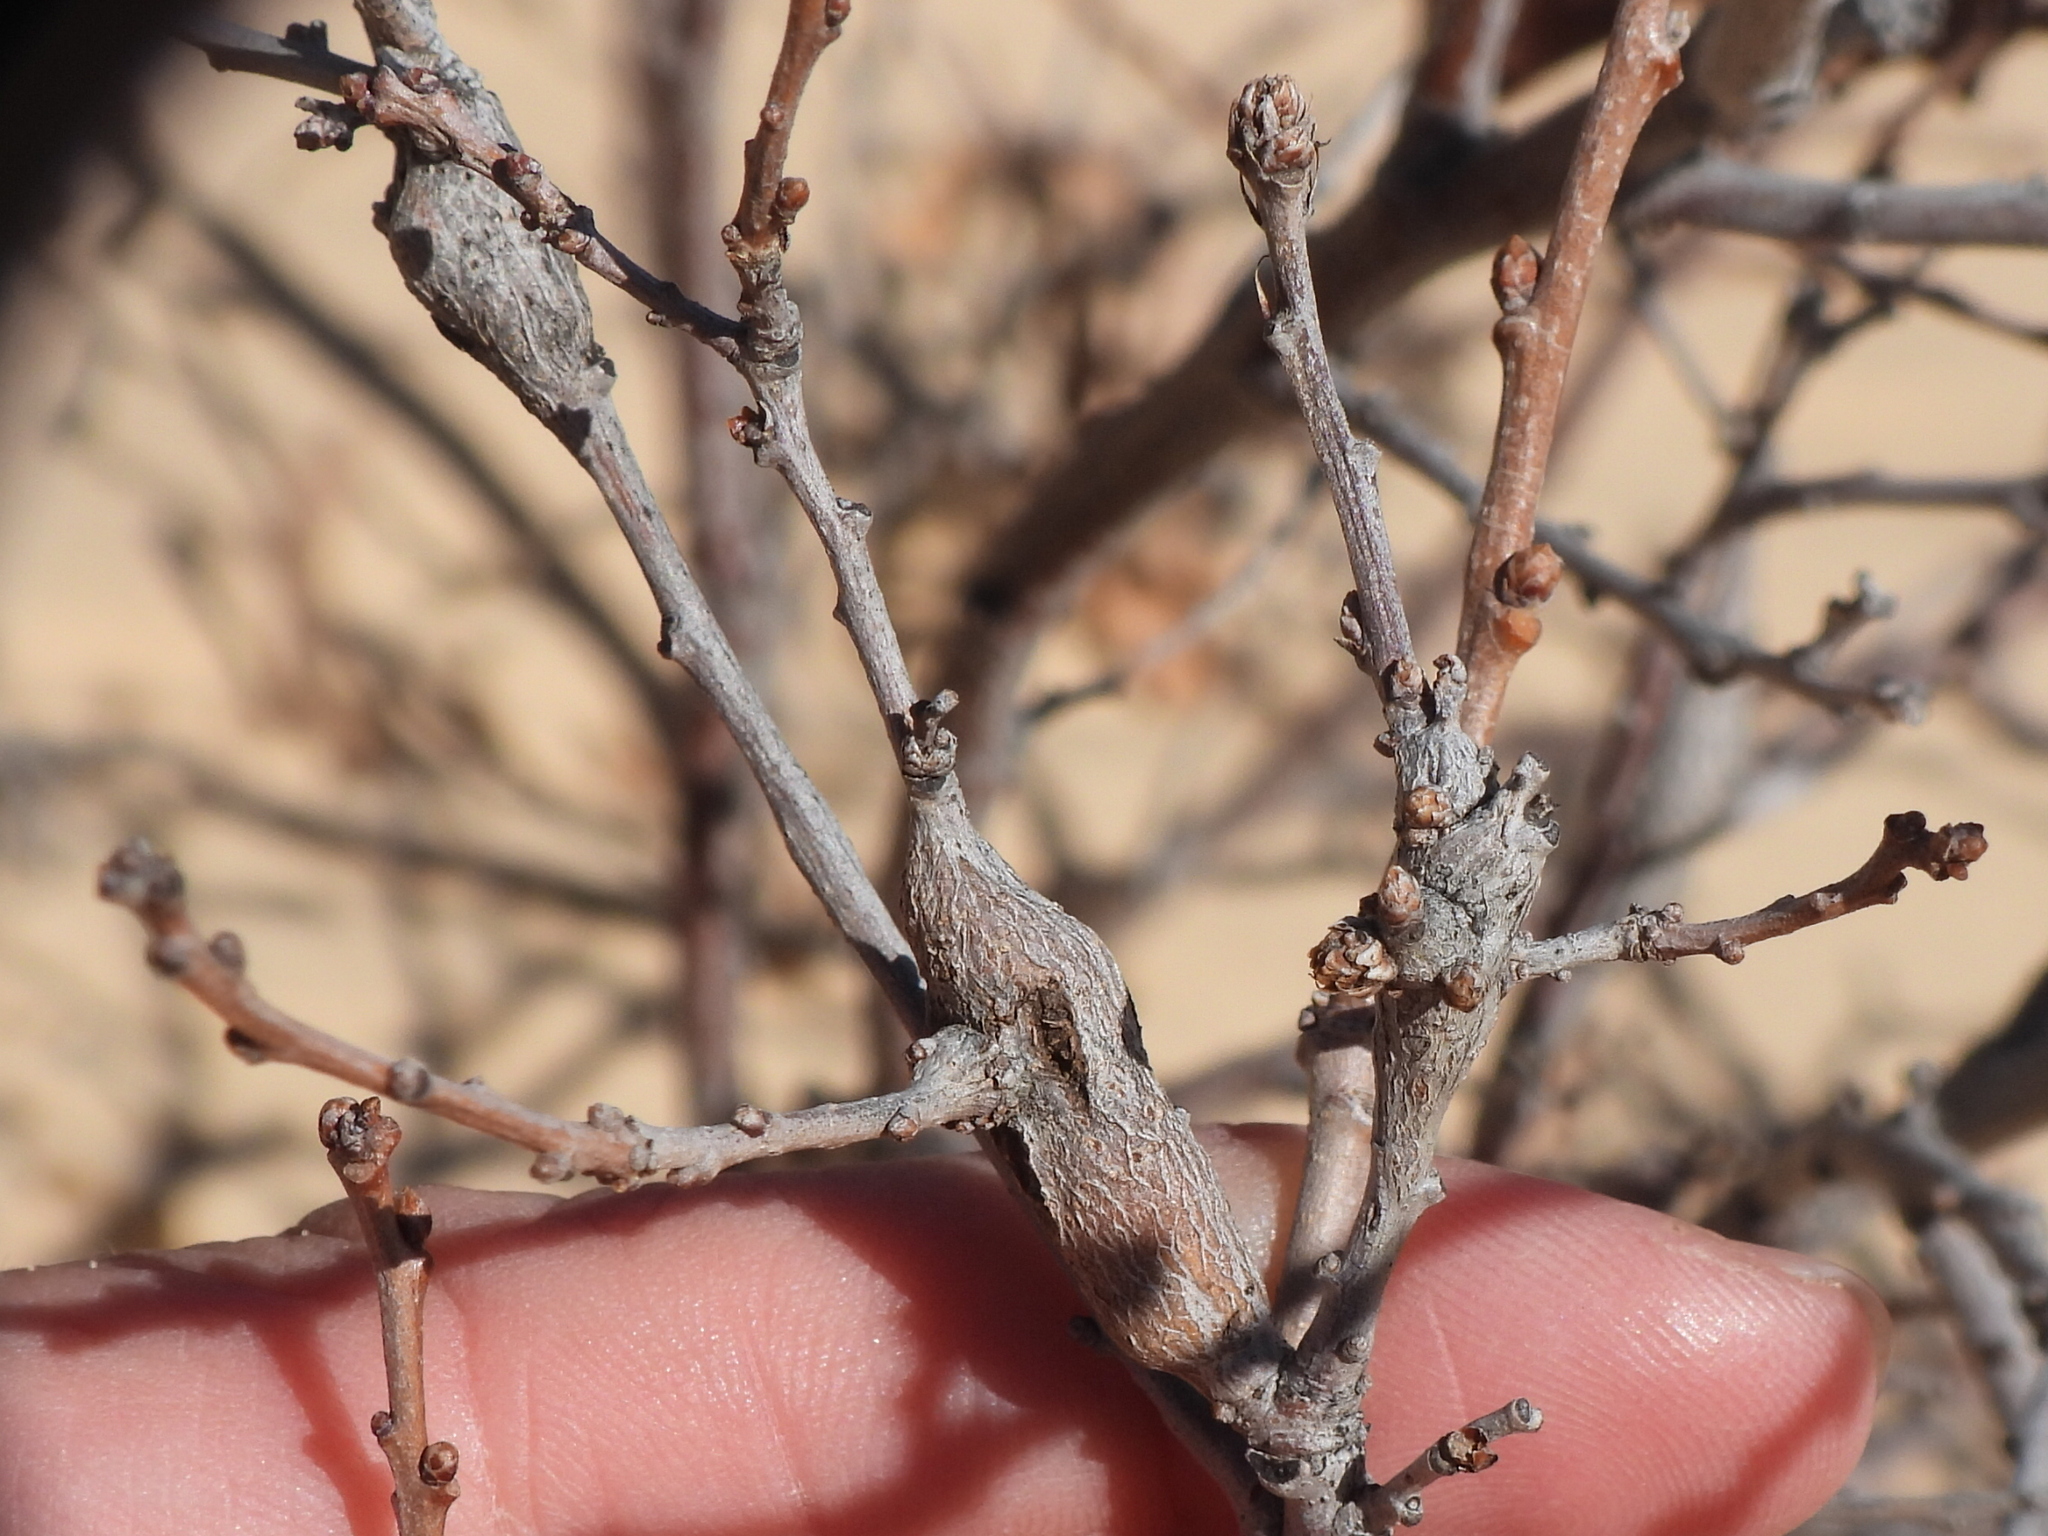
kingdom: Animalia
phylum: Arthropoda
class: Insecta
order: Hymenoptera
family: Cynipidae
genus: Callirhytis
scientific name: Callirhytis
